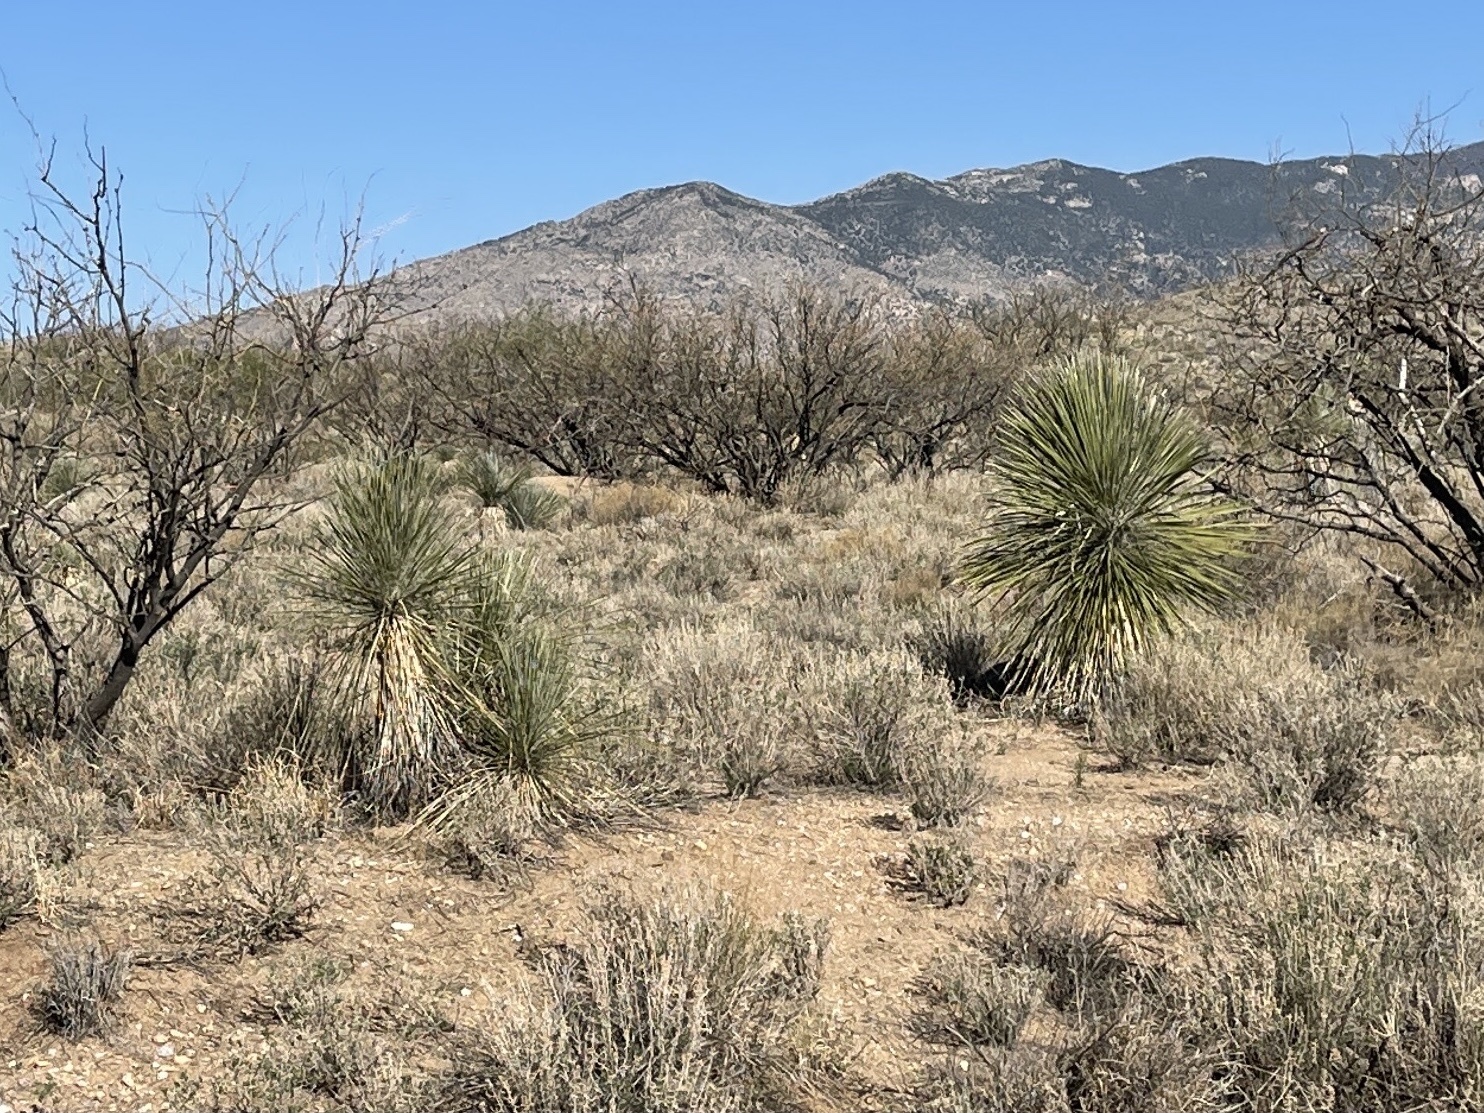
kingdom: Plantae
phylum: Tracheophyta
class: Liliopsida
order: Asparagales
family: Asparagaceae
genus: Yucca
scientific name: Yucca elata
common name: Palmella
